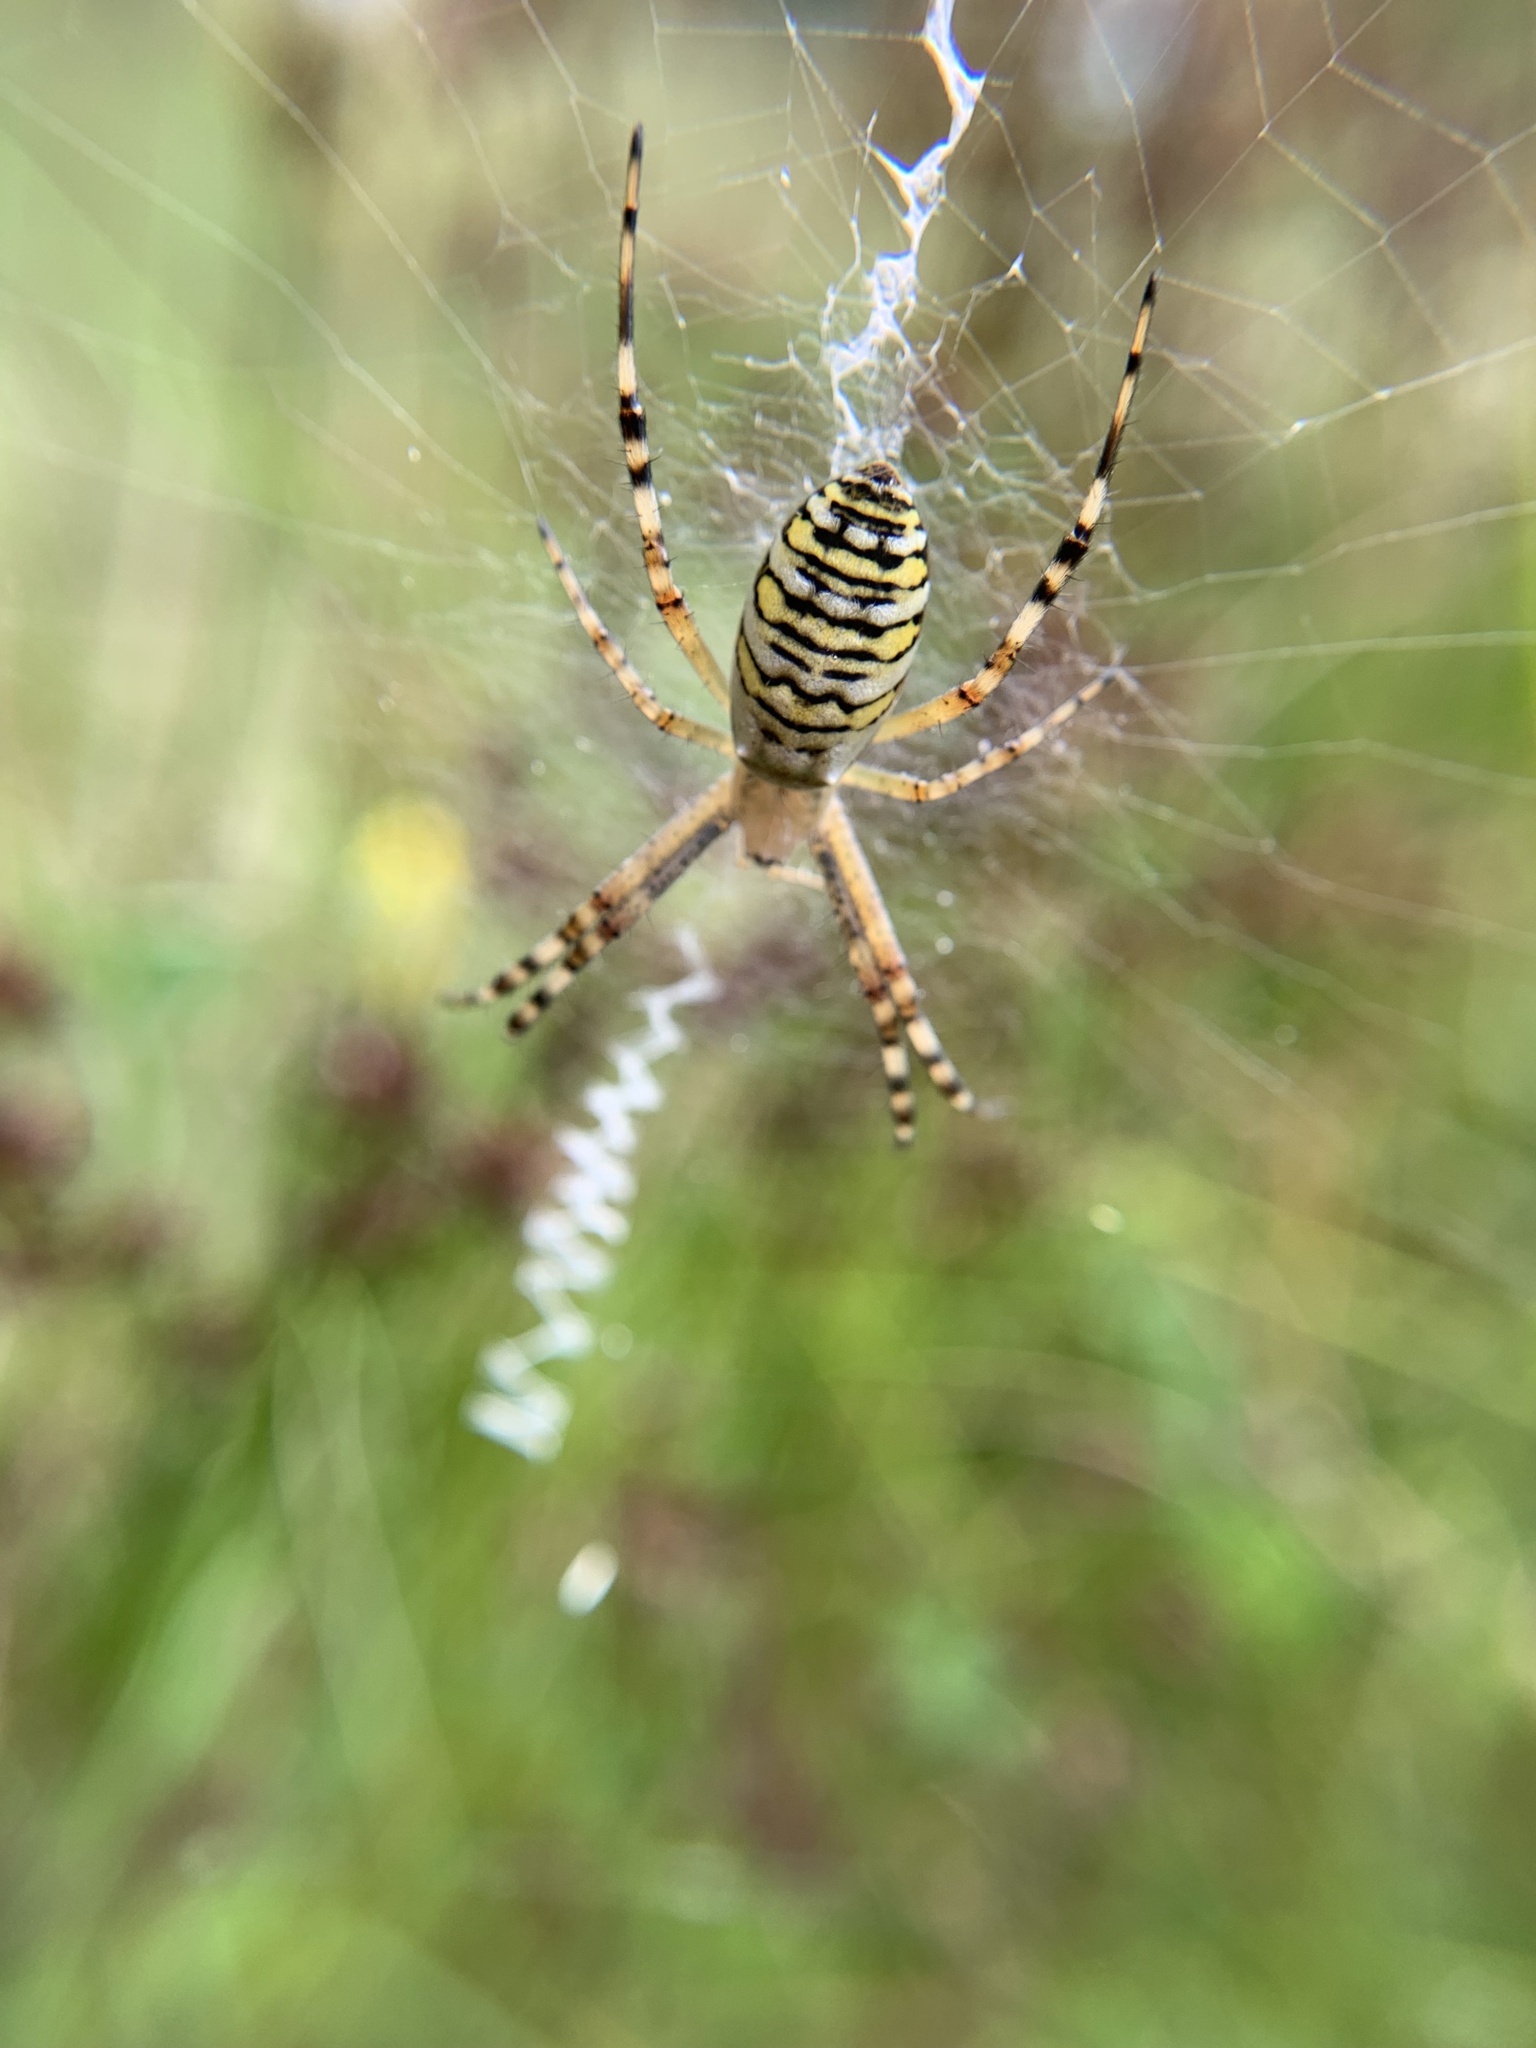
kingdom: Animalia
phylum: Arthropoda
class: Arachnida
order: Araneae
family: Araneidae
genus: Argiope
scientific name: Argiope bruennichi
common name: Wasp spider
